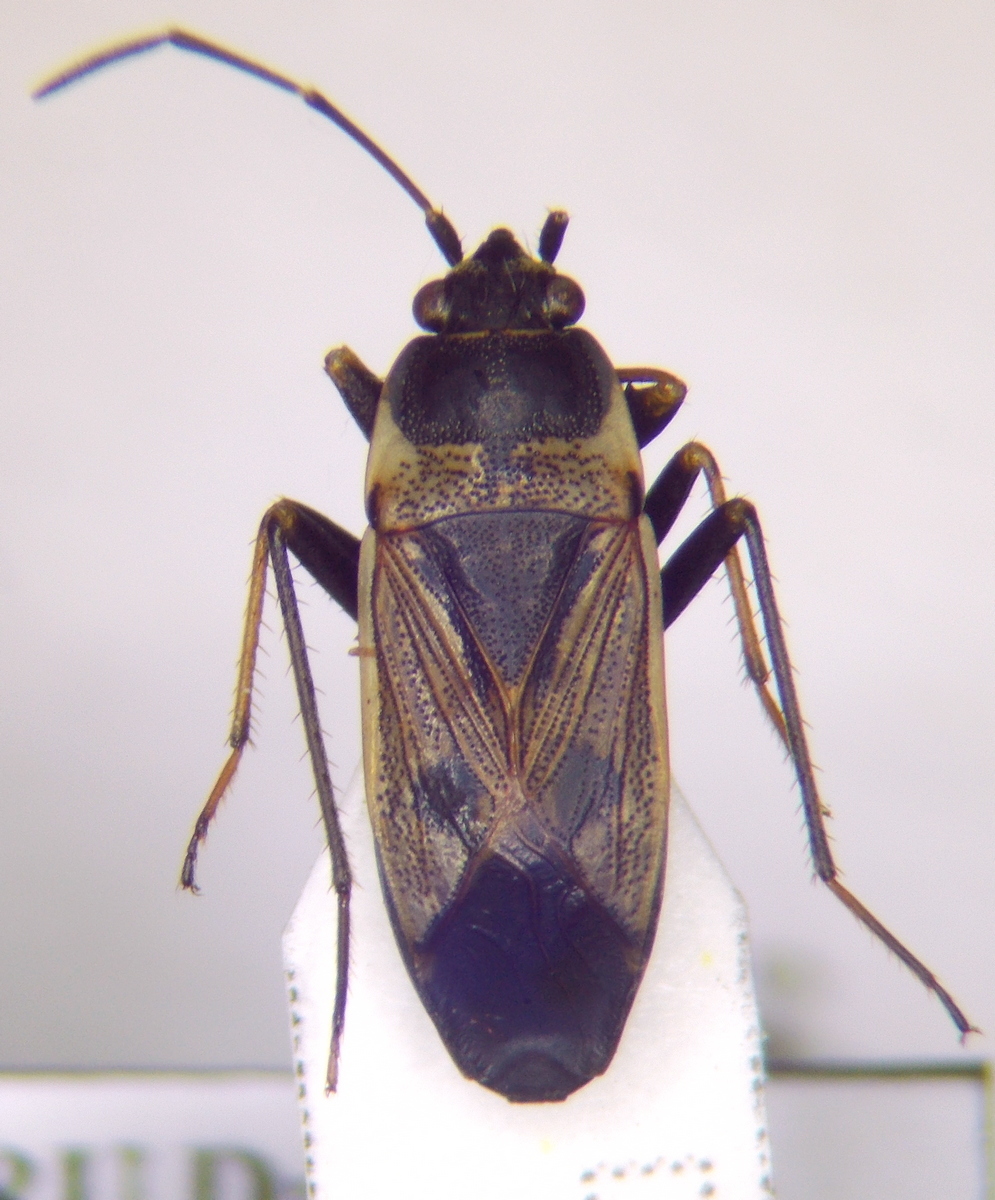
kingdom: Animalia
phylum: Arthropoda
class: Insecta
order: Hemiptera
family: Rhyparochromidae
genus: Rhyparochromus
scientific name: Rhyparochromus vulgaris
